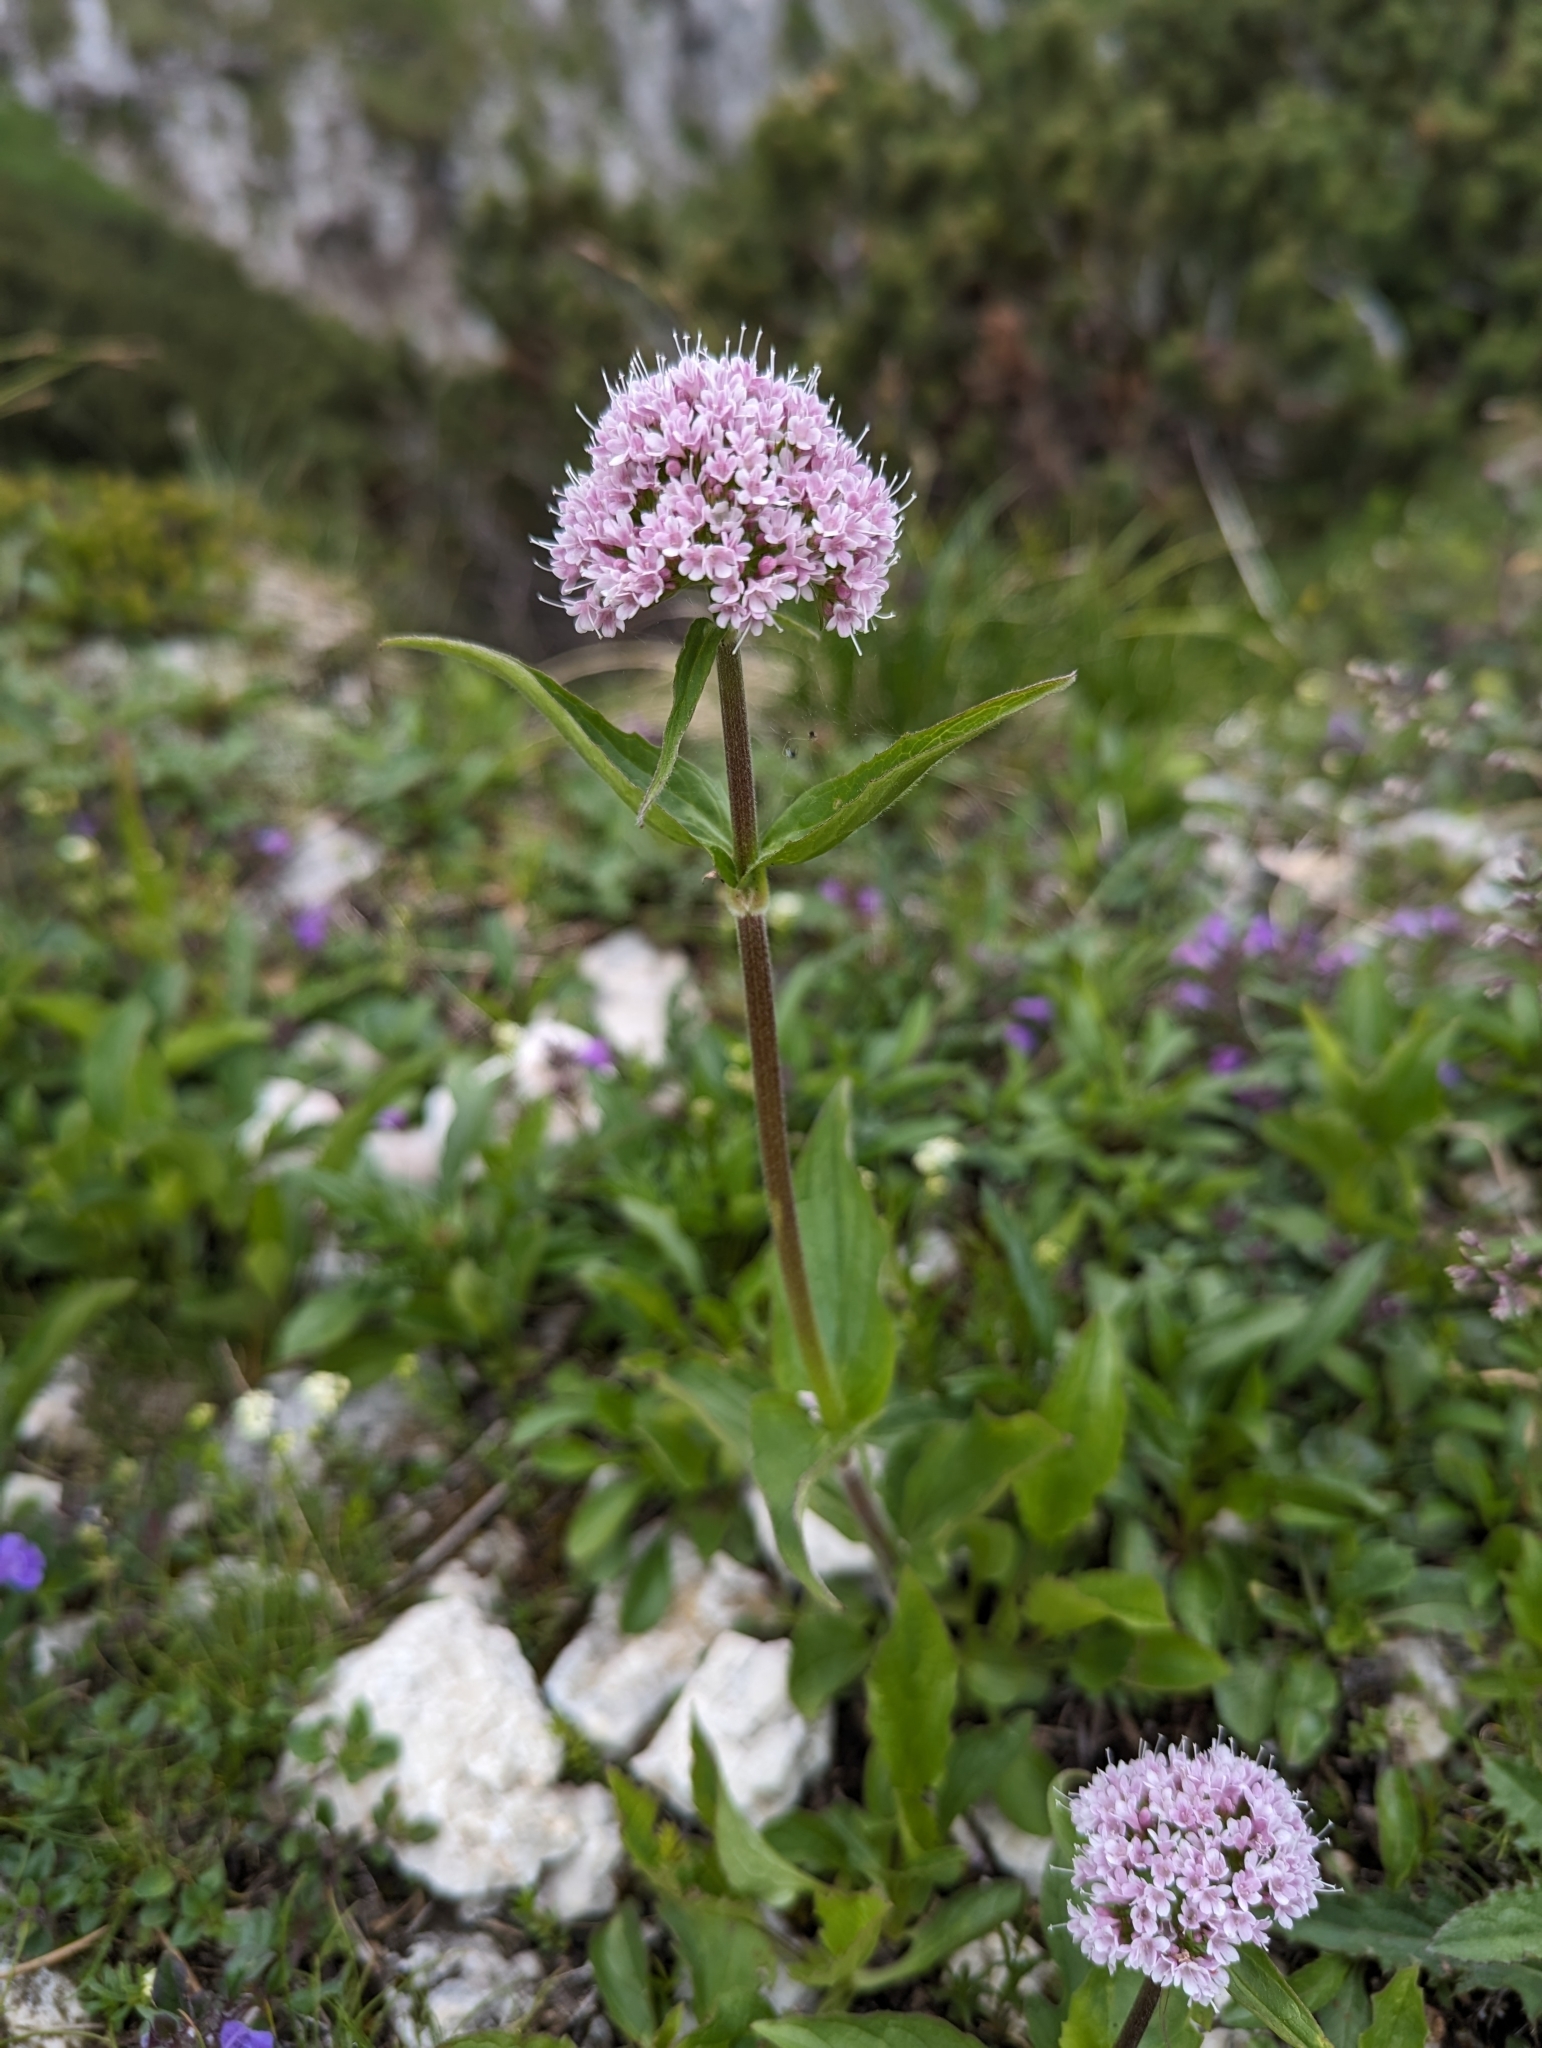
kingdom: Plantae
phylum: Tracheophyta
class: Magnoliopsida
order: Dipsacales
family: Caprifoliaceae
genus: Valeriana
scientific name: Valeriana montana
